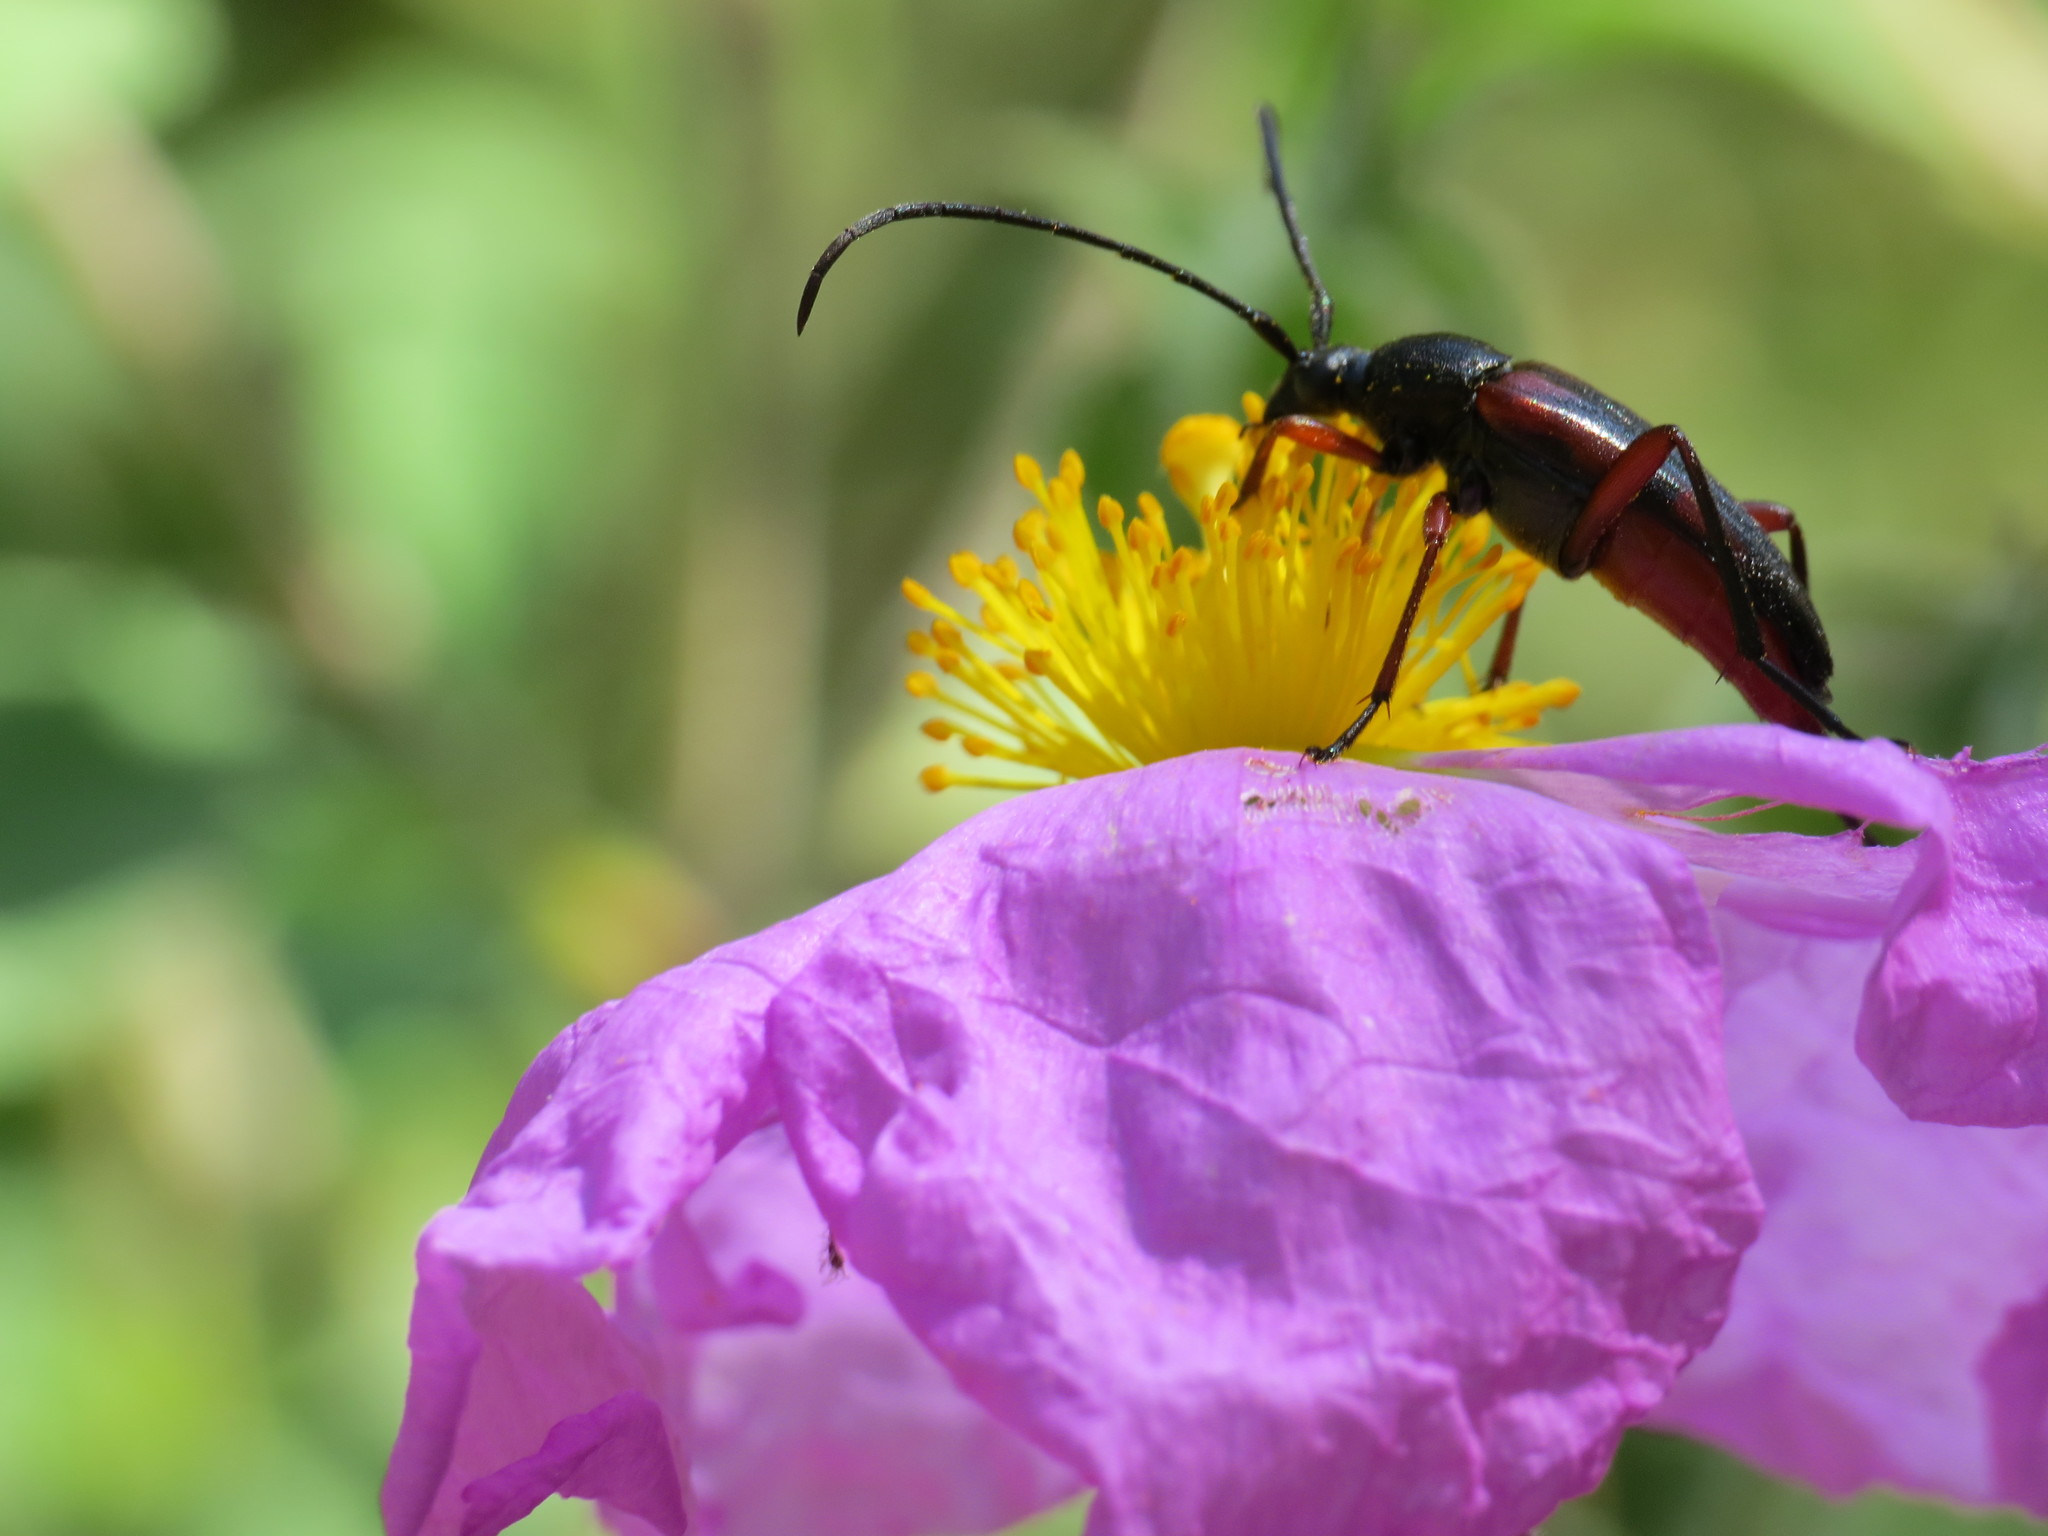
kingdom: Animalia
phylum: Arthropoda
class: Insecta
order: Coleoptera
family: Cerambycidae
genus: Pedostrangalia
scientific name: Pedostrangalia emmipoda
